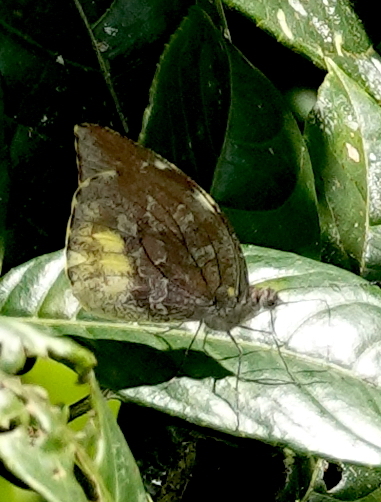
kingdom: Animalia
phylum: Arthropoda
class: Insecta
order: Lepidoptera
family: Pieridae
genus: Lieinix
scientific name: Lieinix nemesis
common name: Frosted mimic-white
